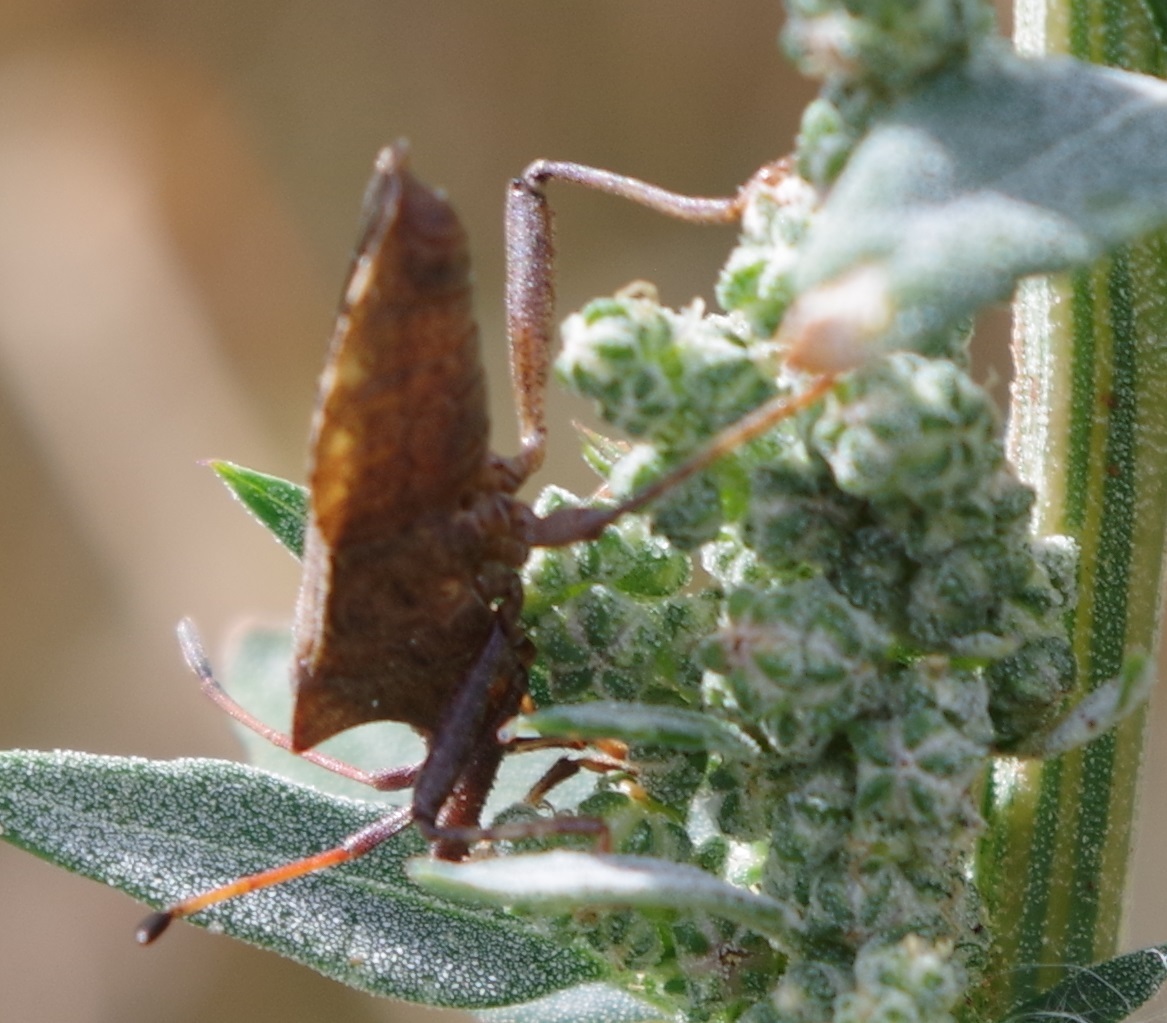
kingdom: Animalia
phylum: Arthropoda
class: Insecta
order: Hemiptera
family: Coreidae
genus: Coreus
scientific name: Coreus marginatus
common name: Dock bug
